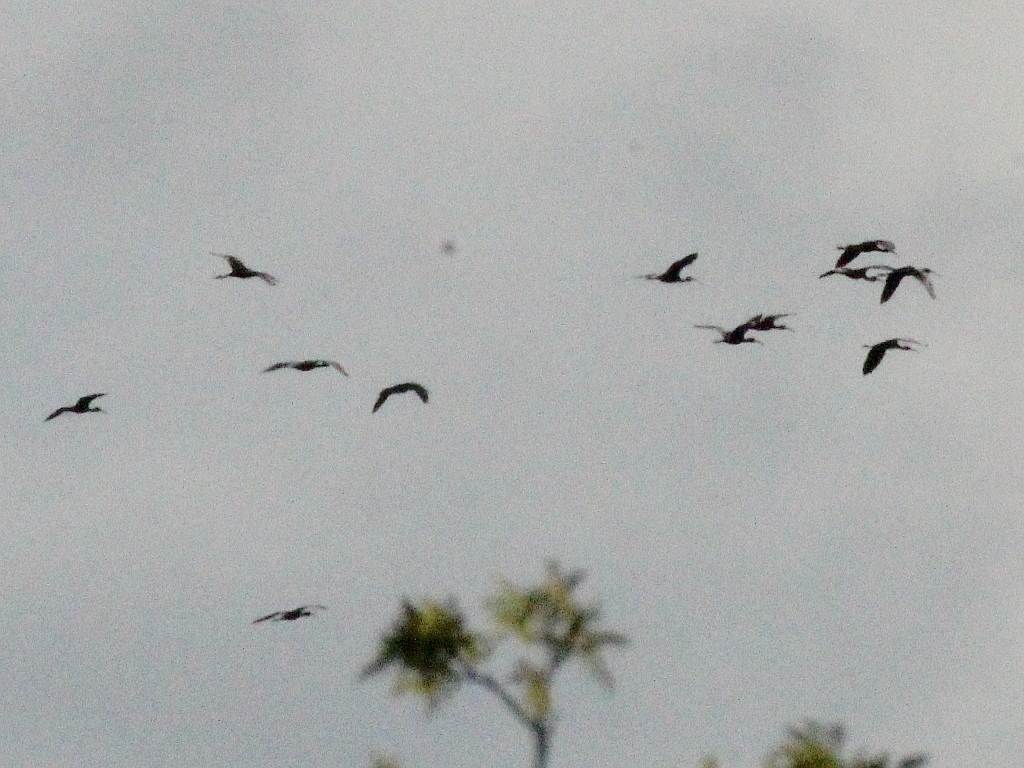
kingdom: Animalia
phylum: Chordata
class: Aves
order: Pelecaniformes
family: Threskiornithidae
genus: Plegadis
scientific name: Plegadis falcinellus
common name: Glossy ibis
